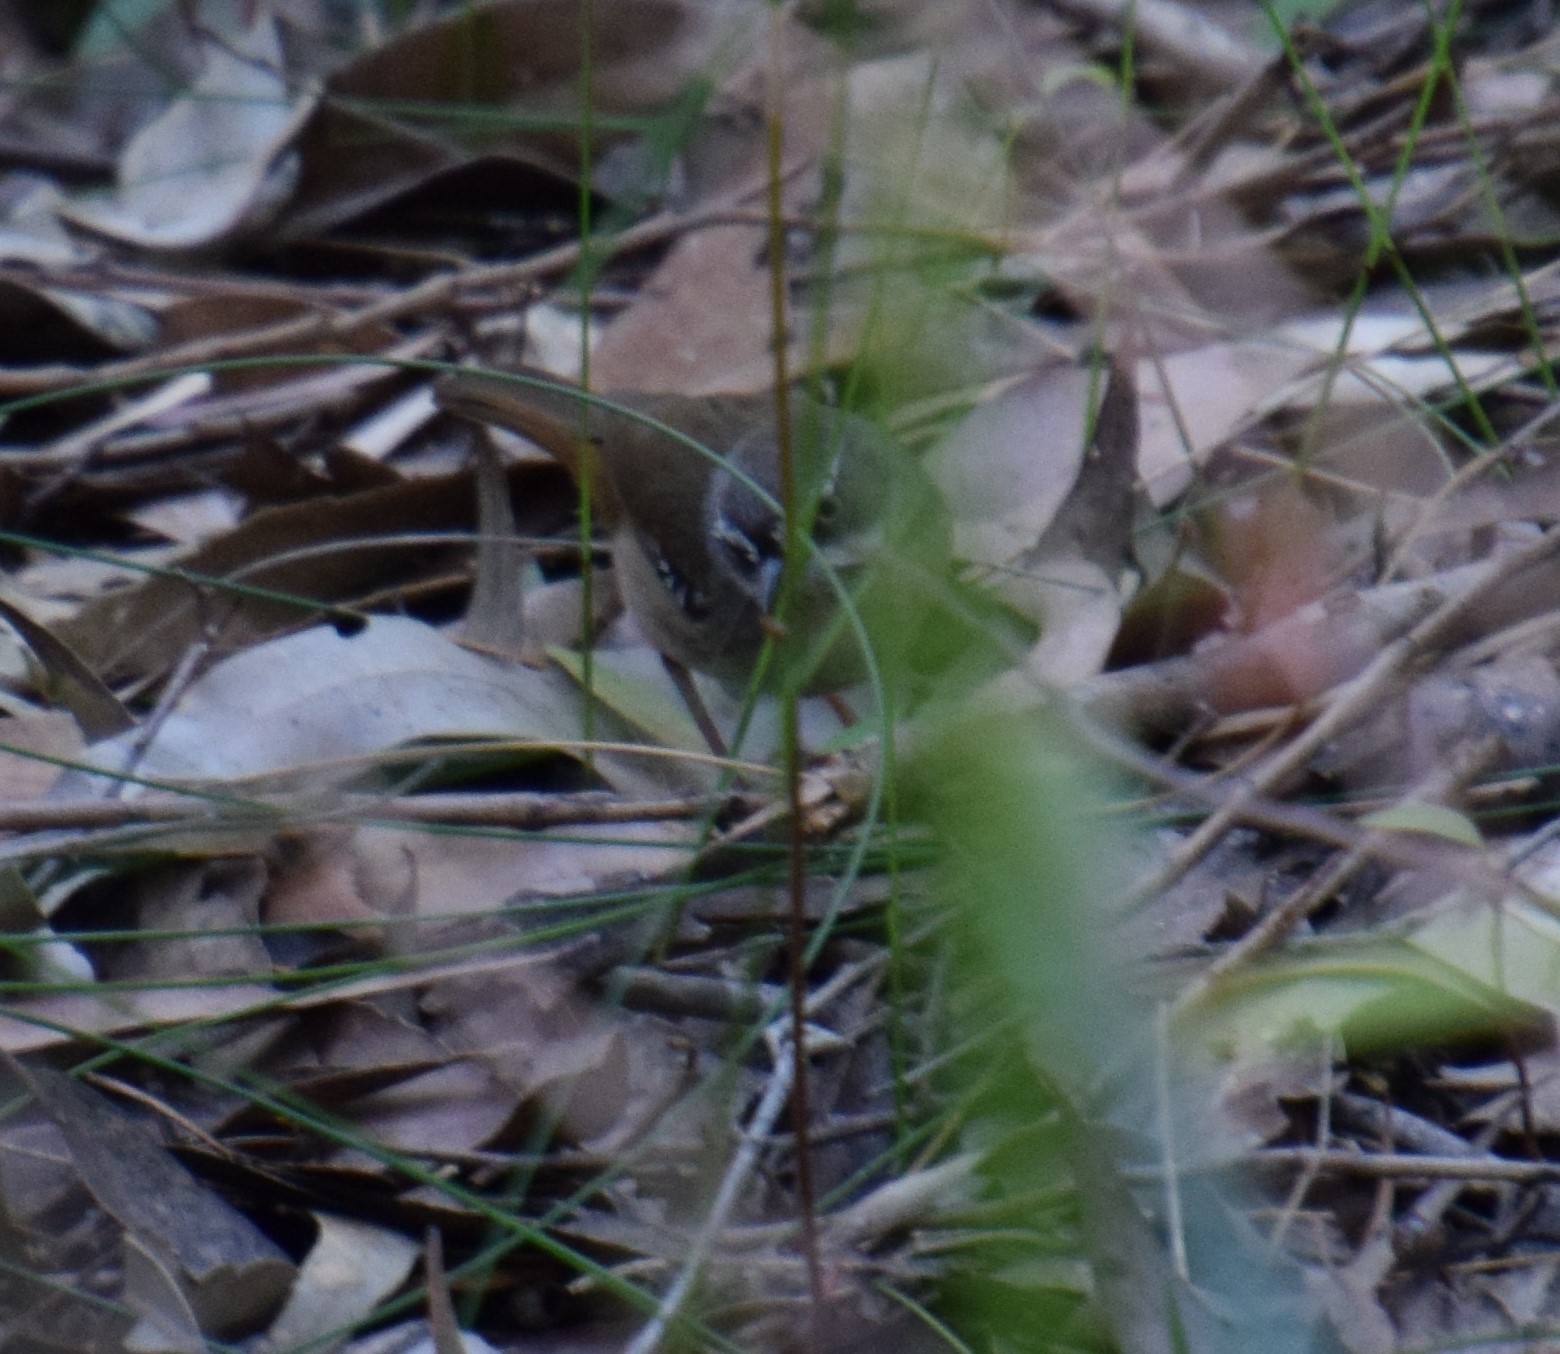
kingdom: Animalia
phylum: Chordata
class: Aves
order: Passeriformes
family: Acanthizidae
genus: Sericornis
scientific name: Sericornis frontalis
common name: White-browed scrubwren
